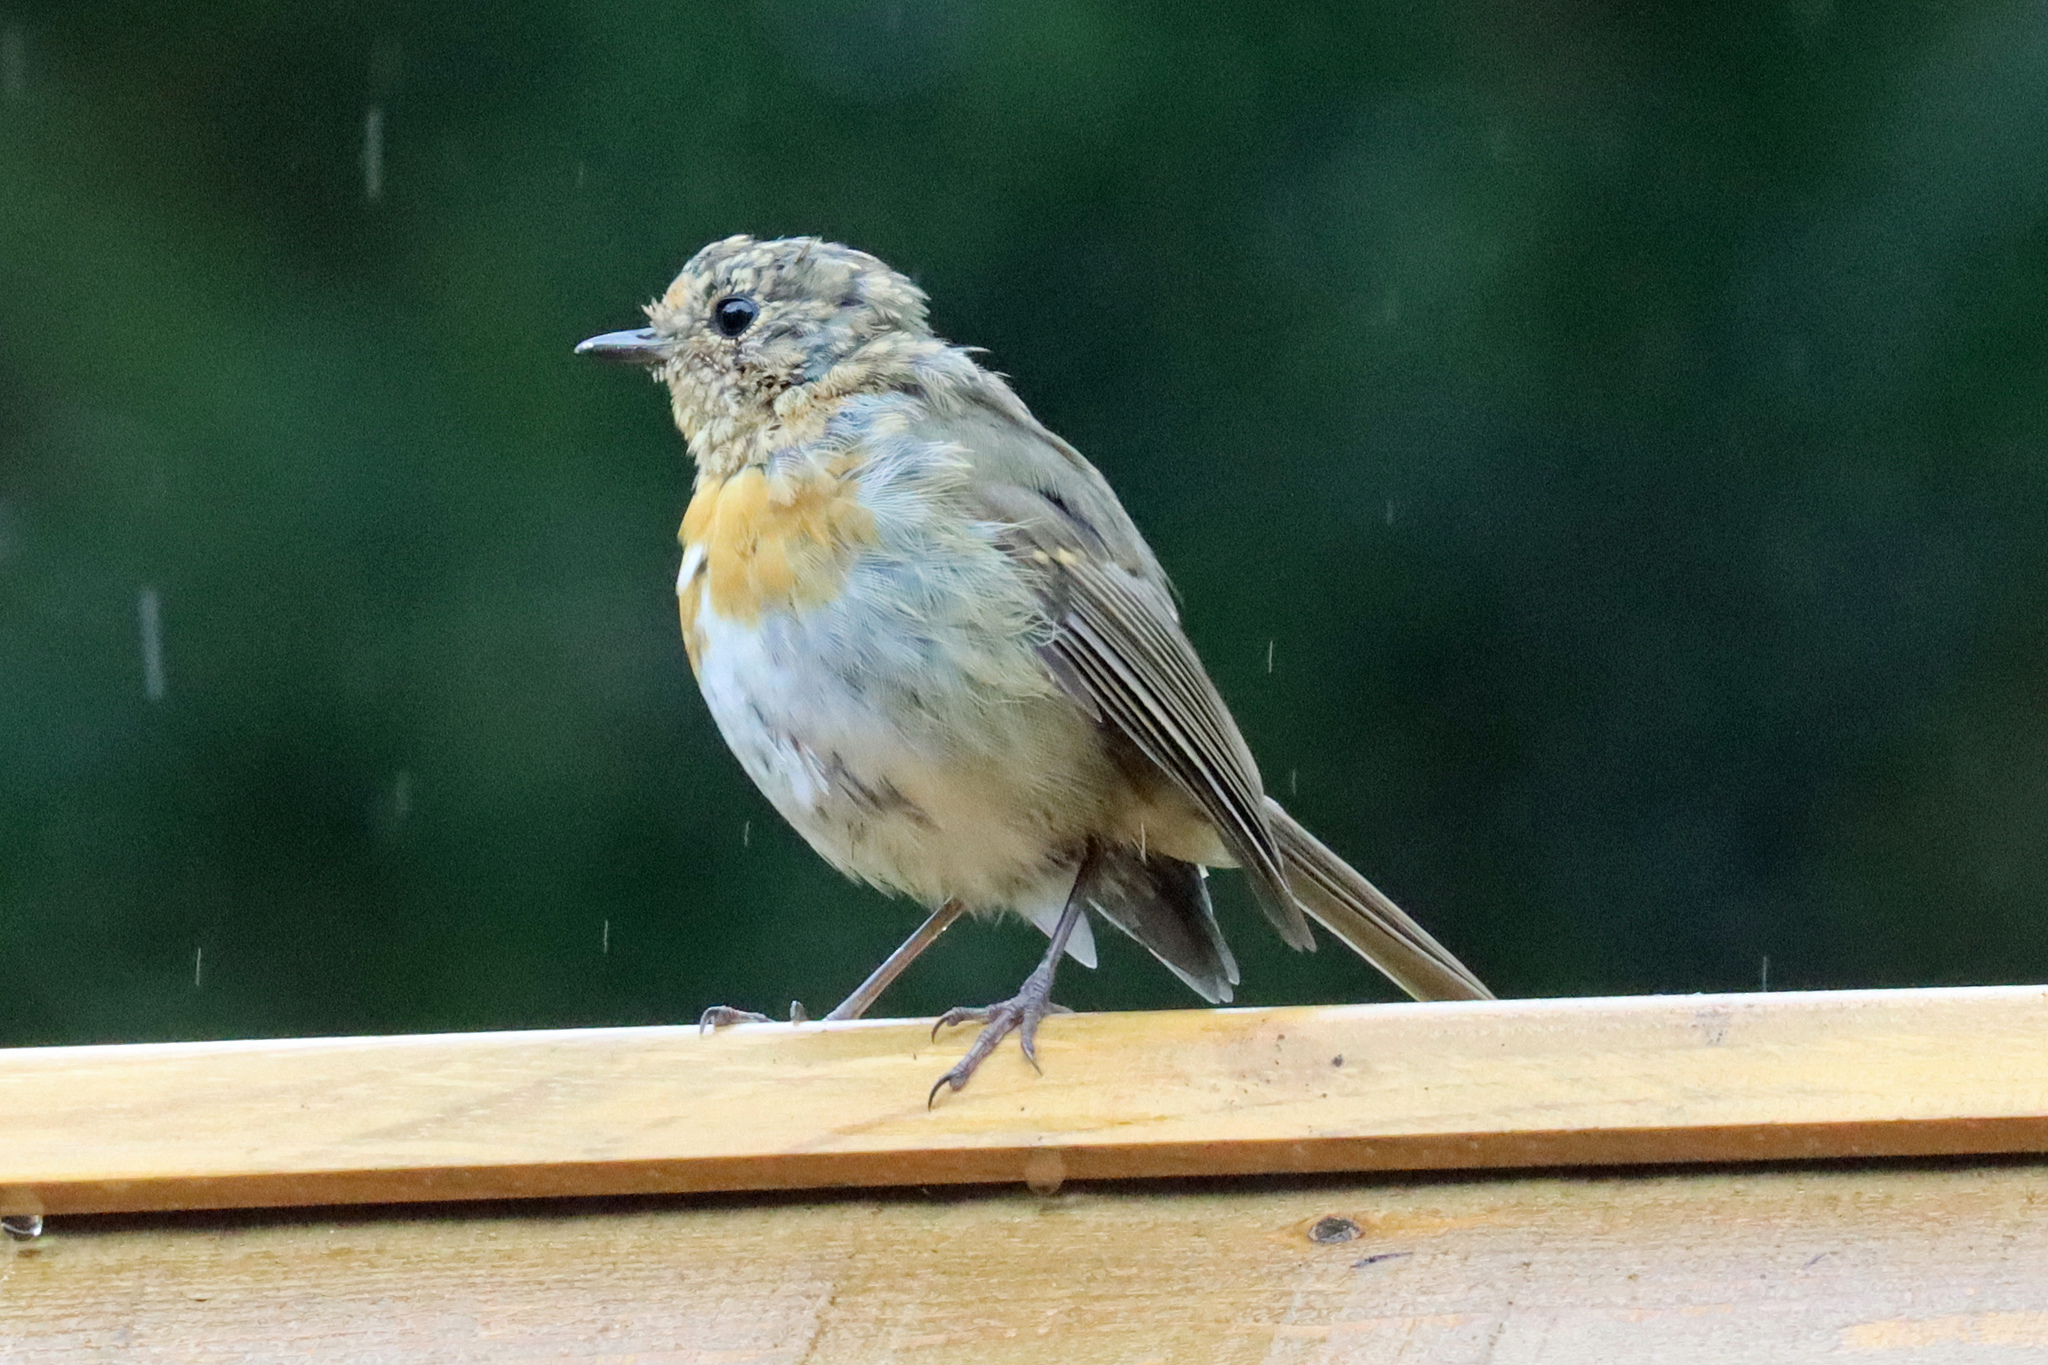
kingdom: Animalia
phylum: Chordata
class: Aves
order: Passeriformes
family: Muscicapidae
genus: Erithacus
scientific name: Erithacus rubecula
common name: European robin
